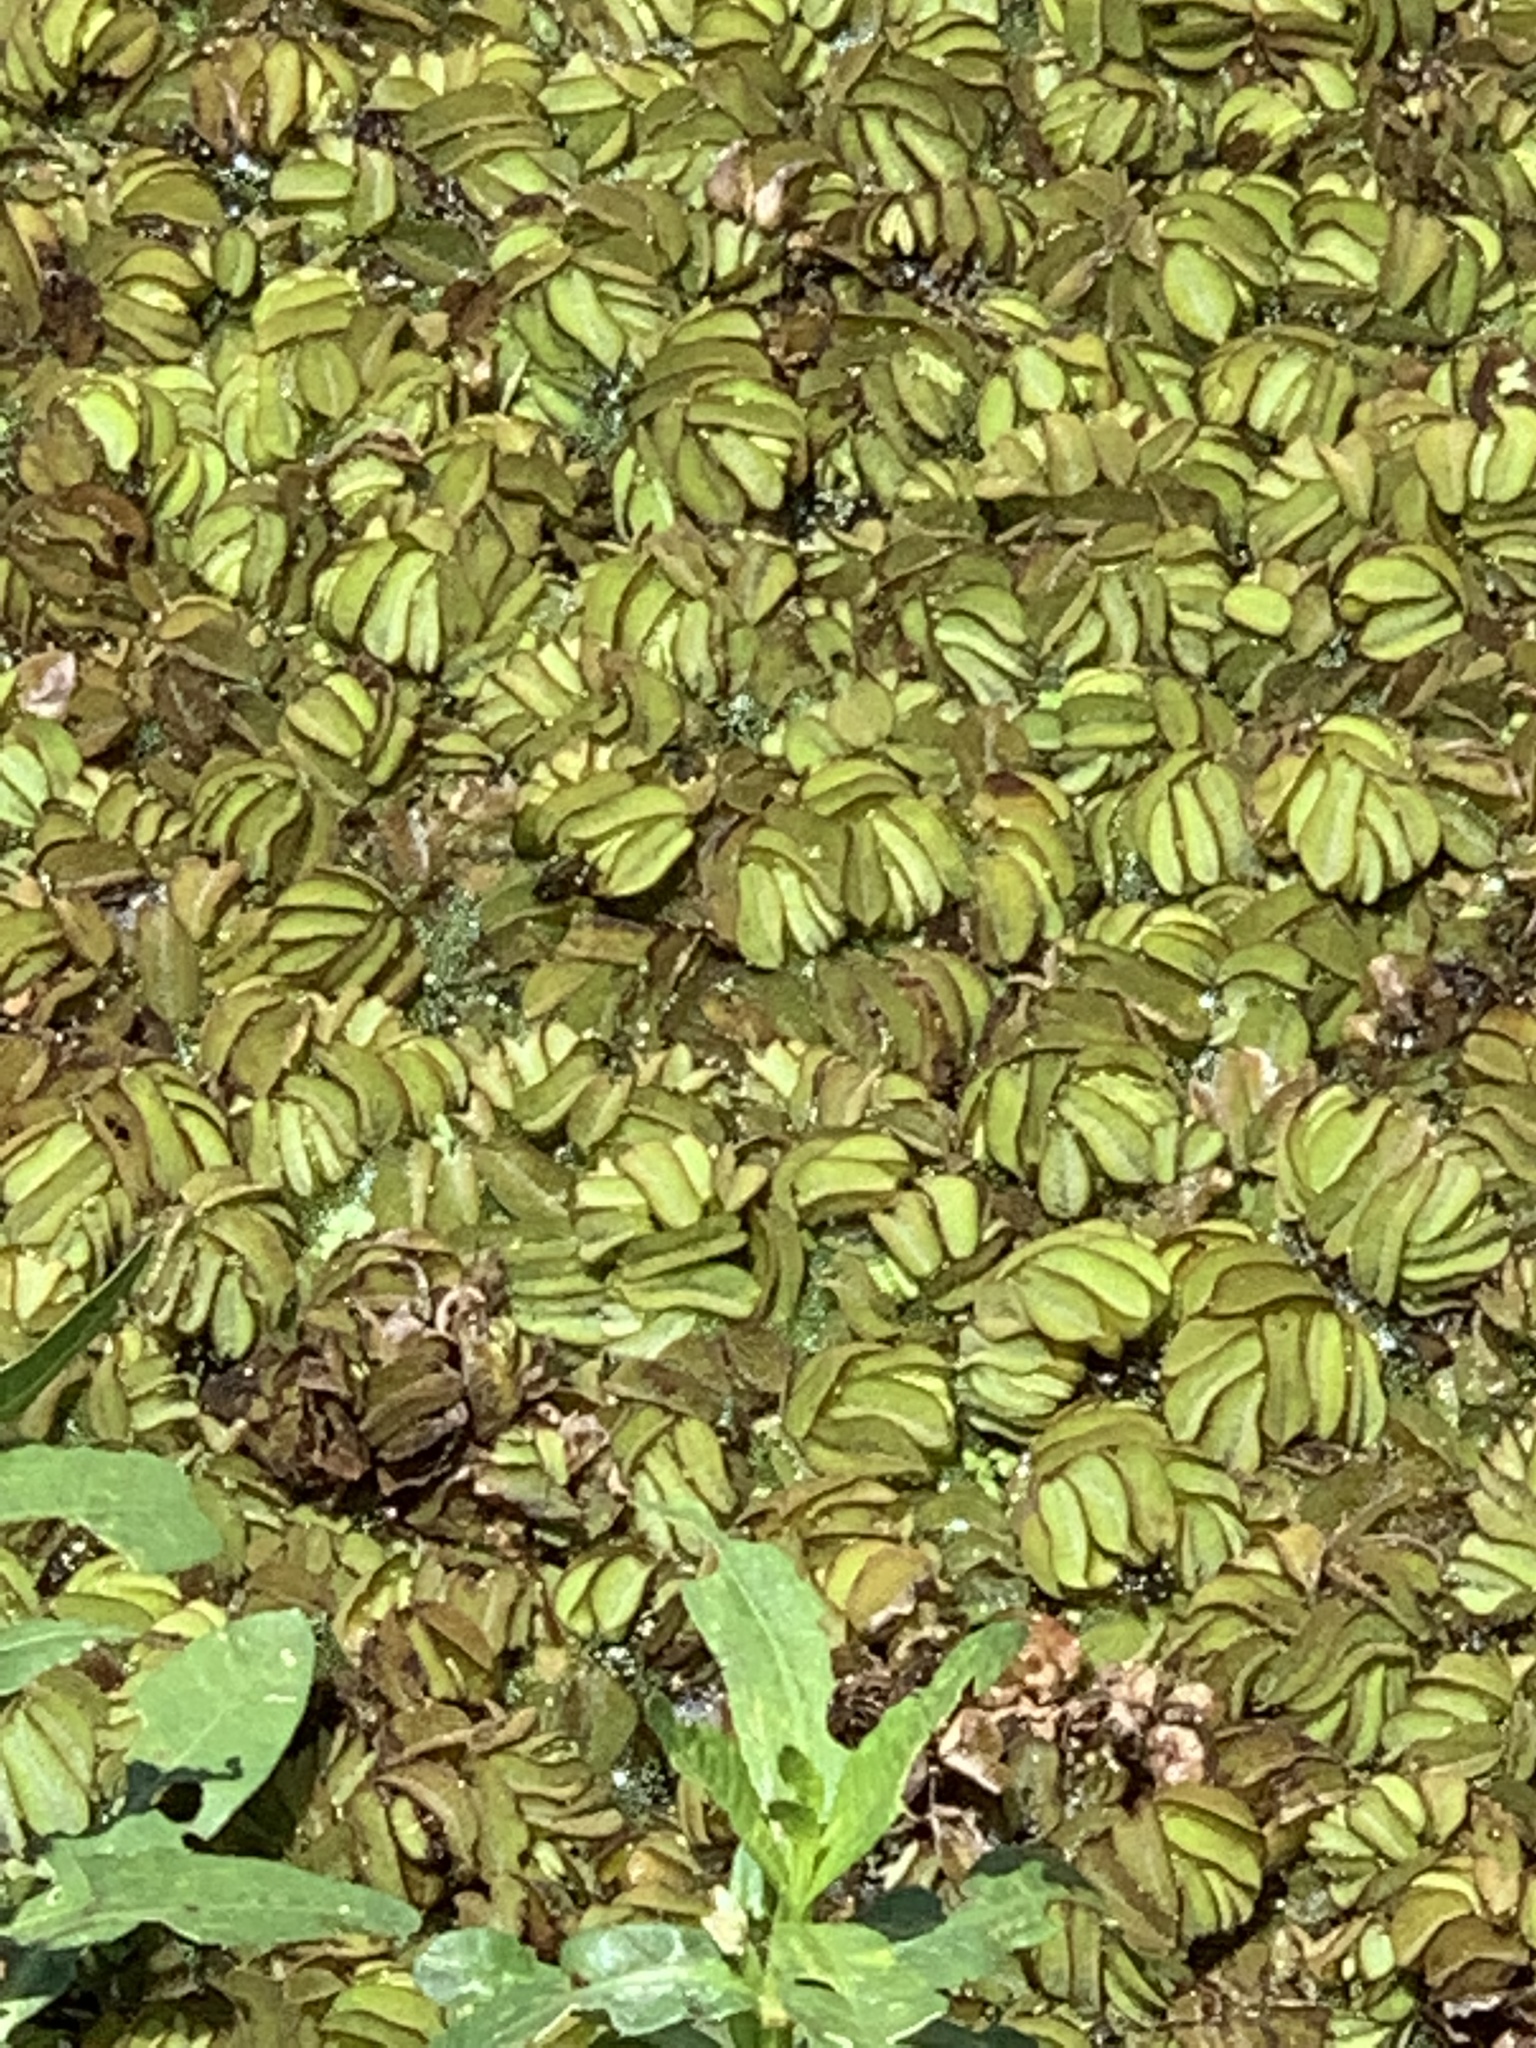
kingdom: Plantae
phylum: Tracheophyta
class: Polypodiopsida
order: Salviniales
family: Salviniaceae
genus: Salvinia
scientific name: Salvinia molesta
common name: Kariba weed
